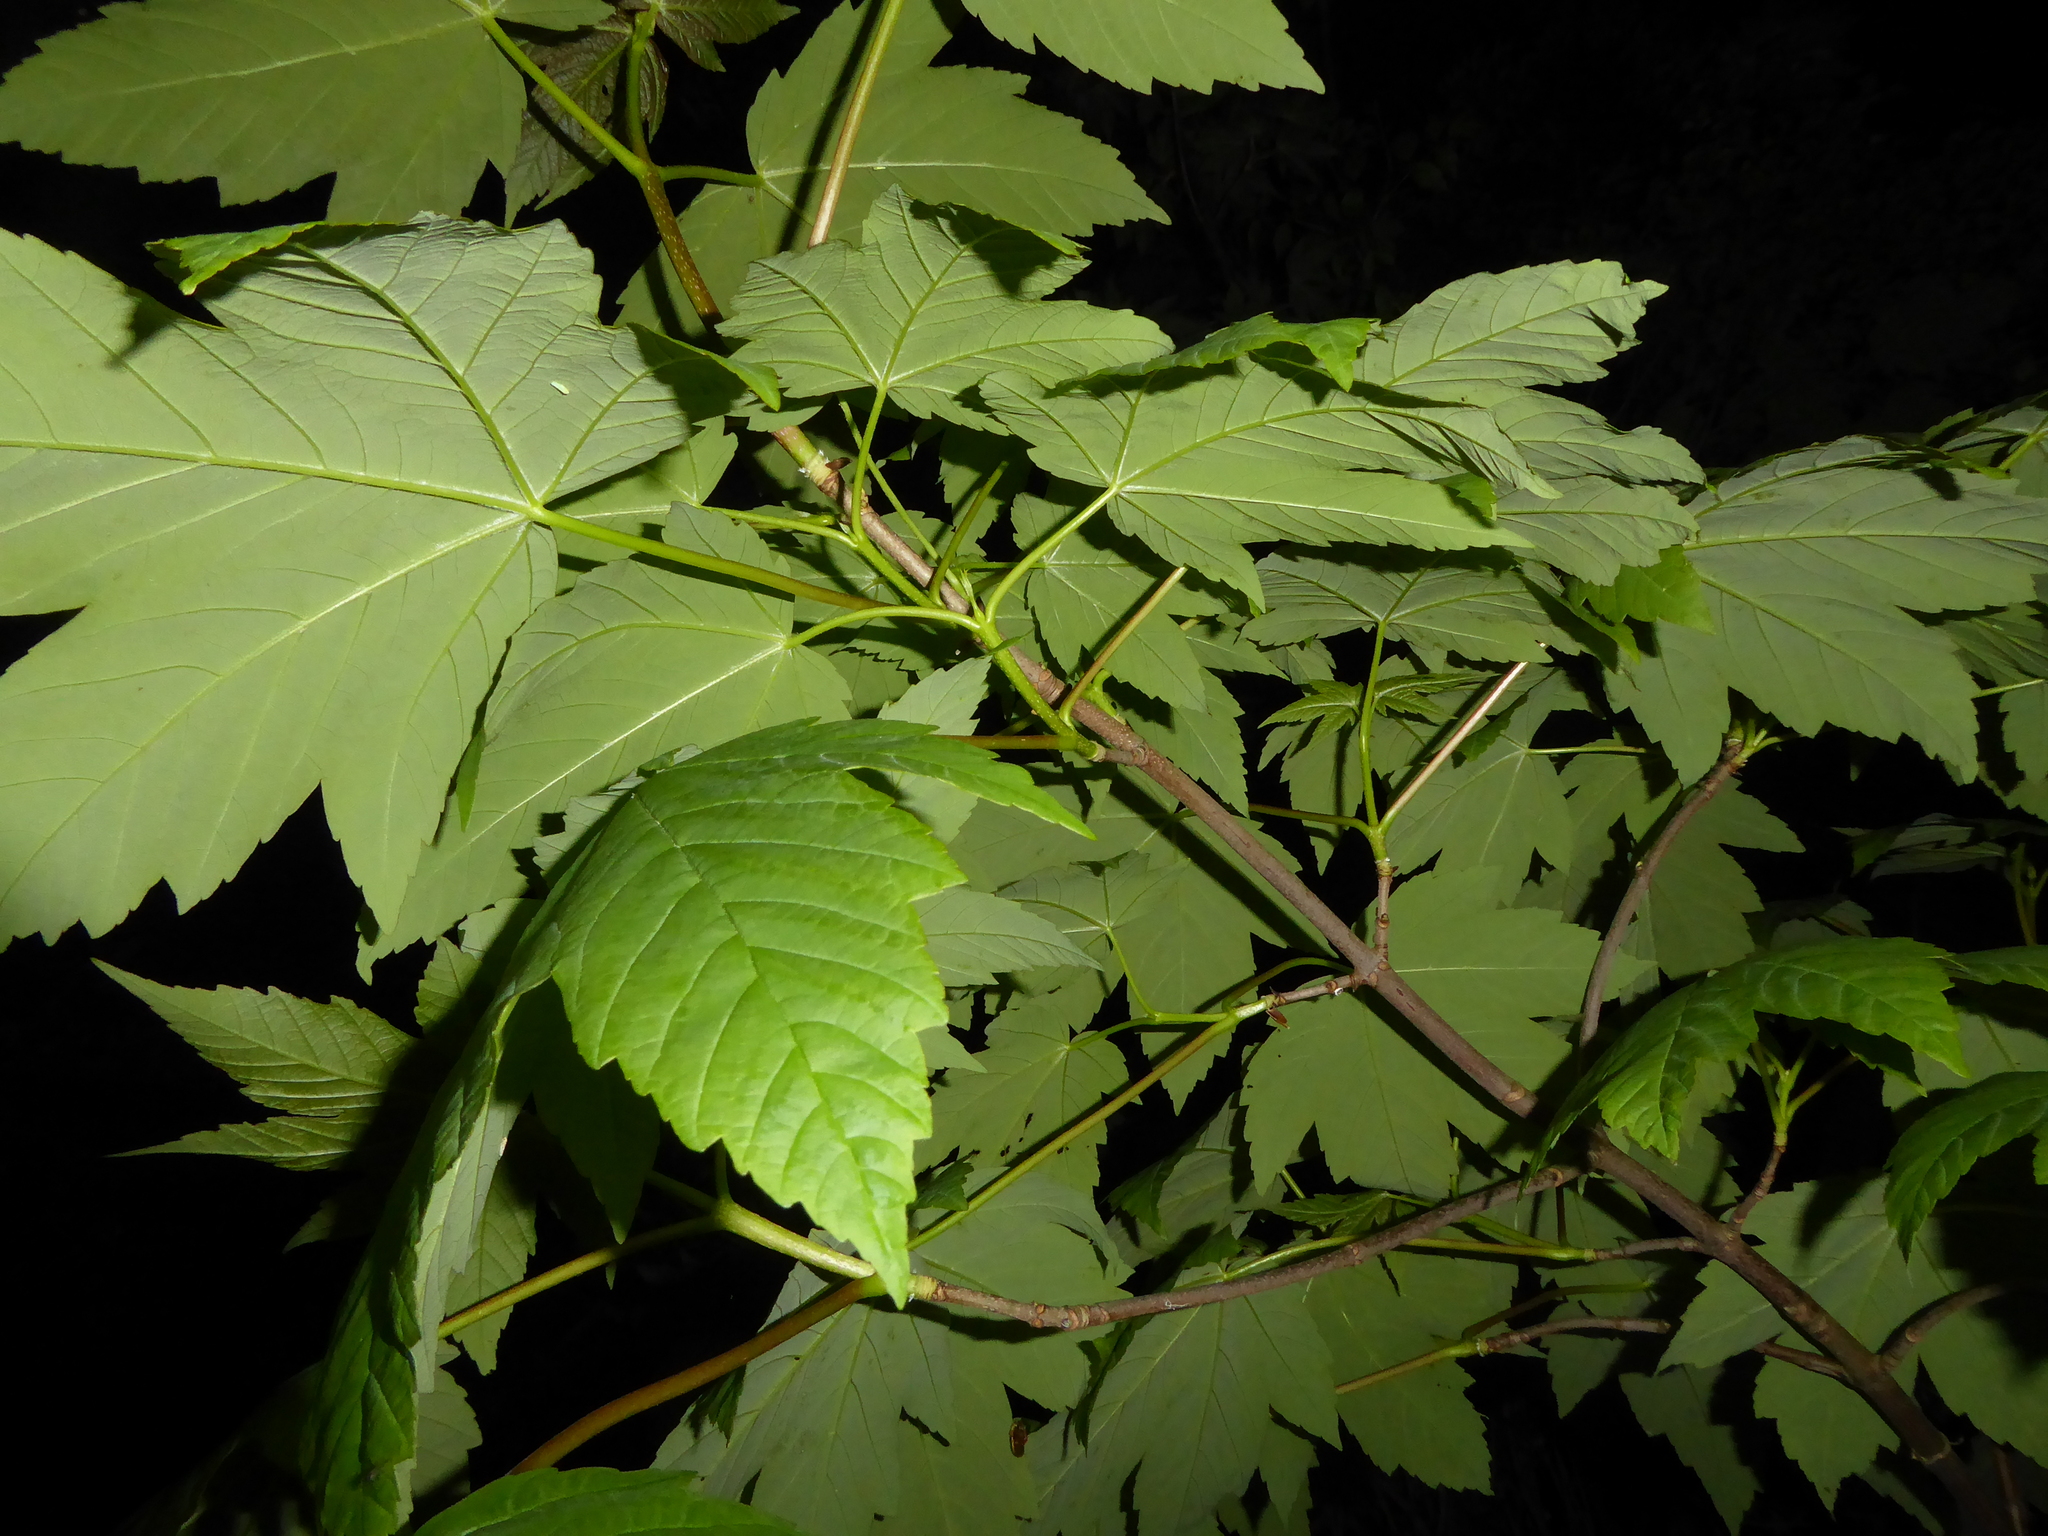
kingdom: Plantae
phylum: Tracheophyta
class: Magnoliopsida
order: Sapindales
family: Sapindaceae
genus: Acer
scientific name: Acer pseudoplatanus
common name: Sycamore
